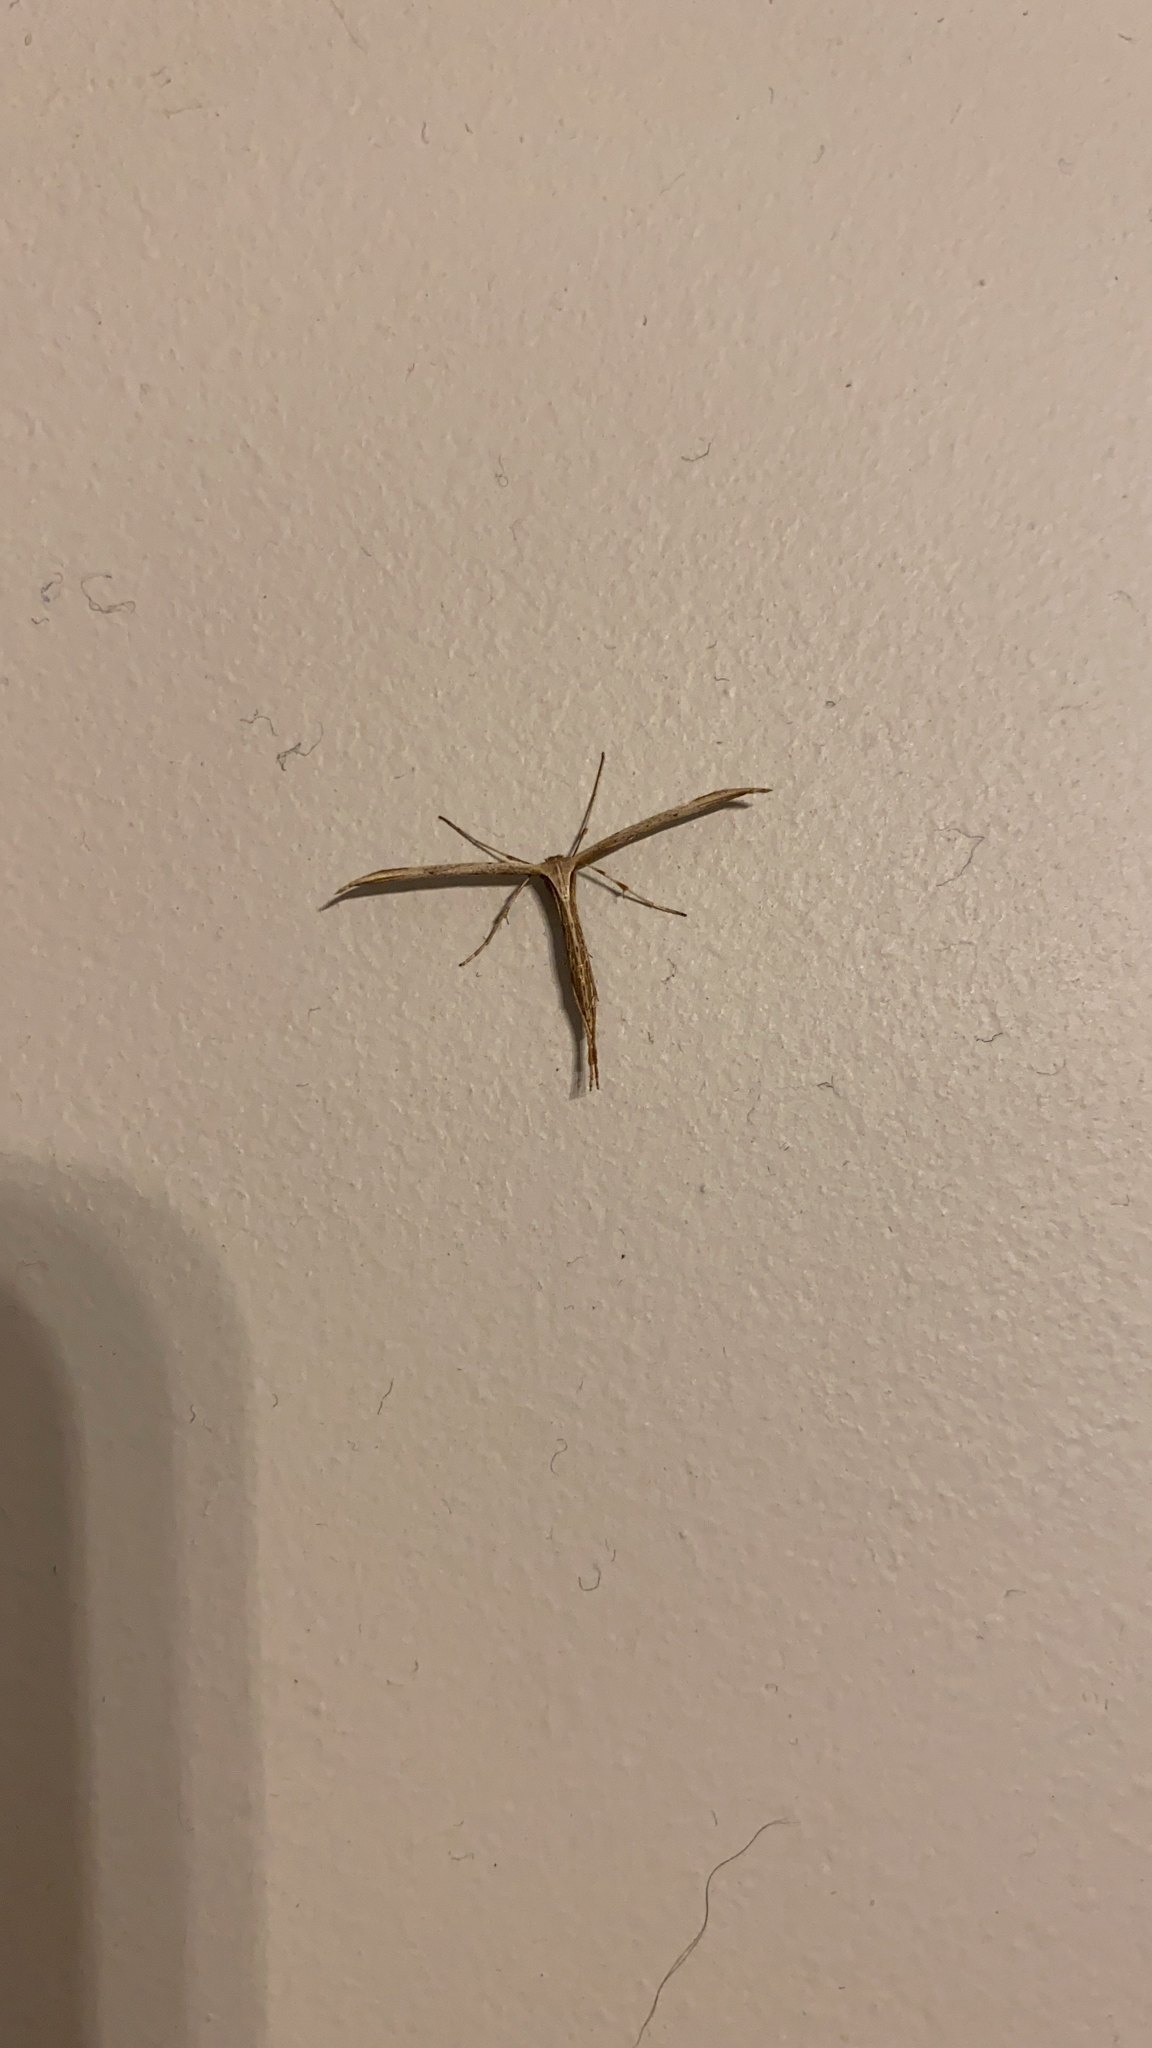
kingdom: Animalia
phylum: Arthropoda
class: Insecta
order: Lepidoptera
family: Pterophoridae
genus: Emmelina
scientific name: Emmelina monodactyla
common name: Common plume
